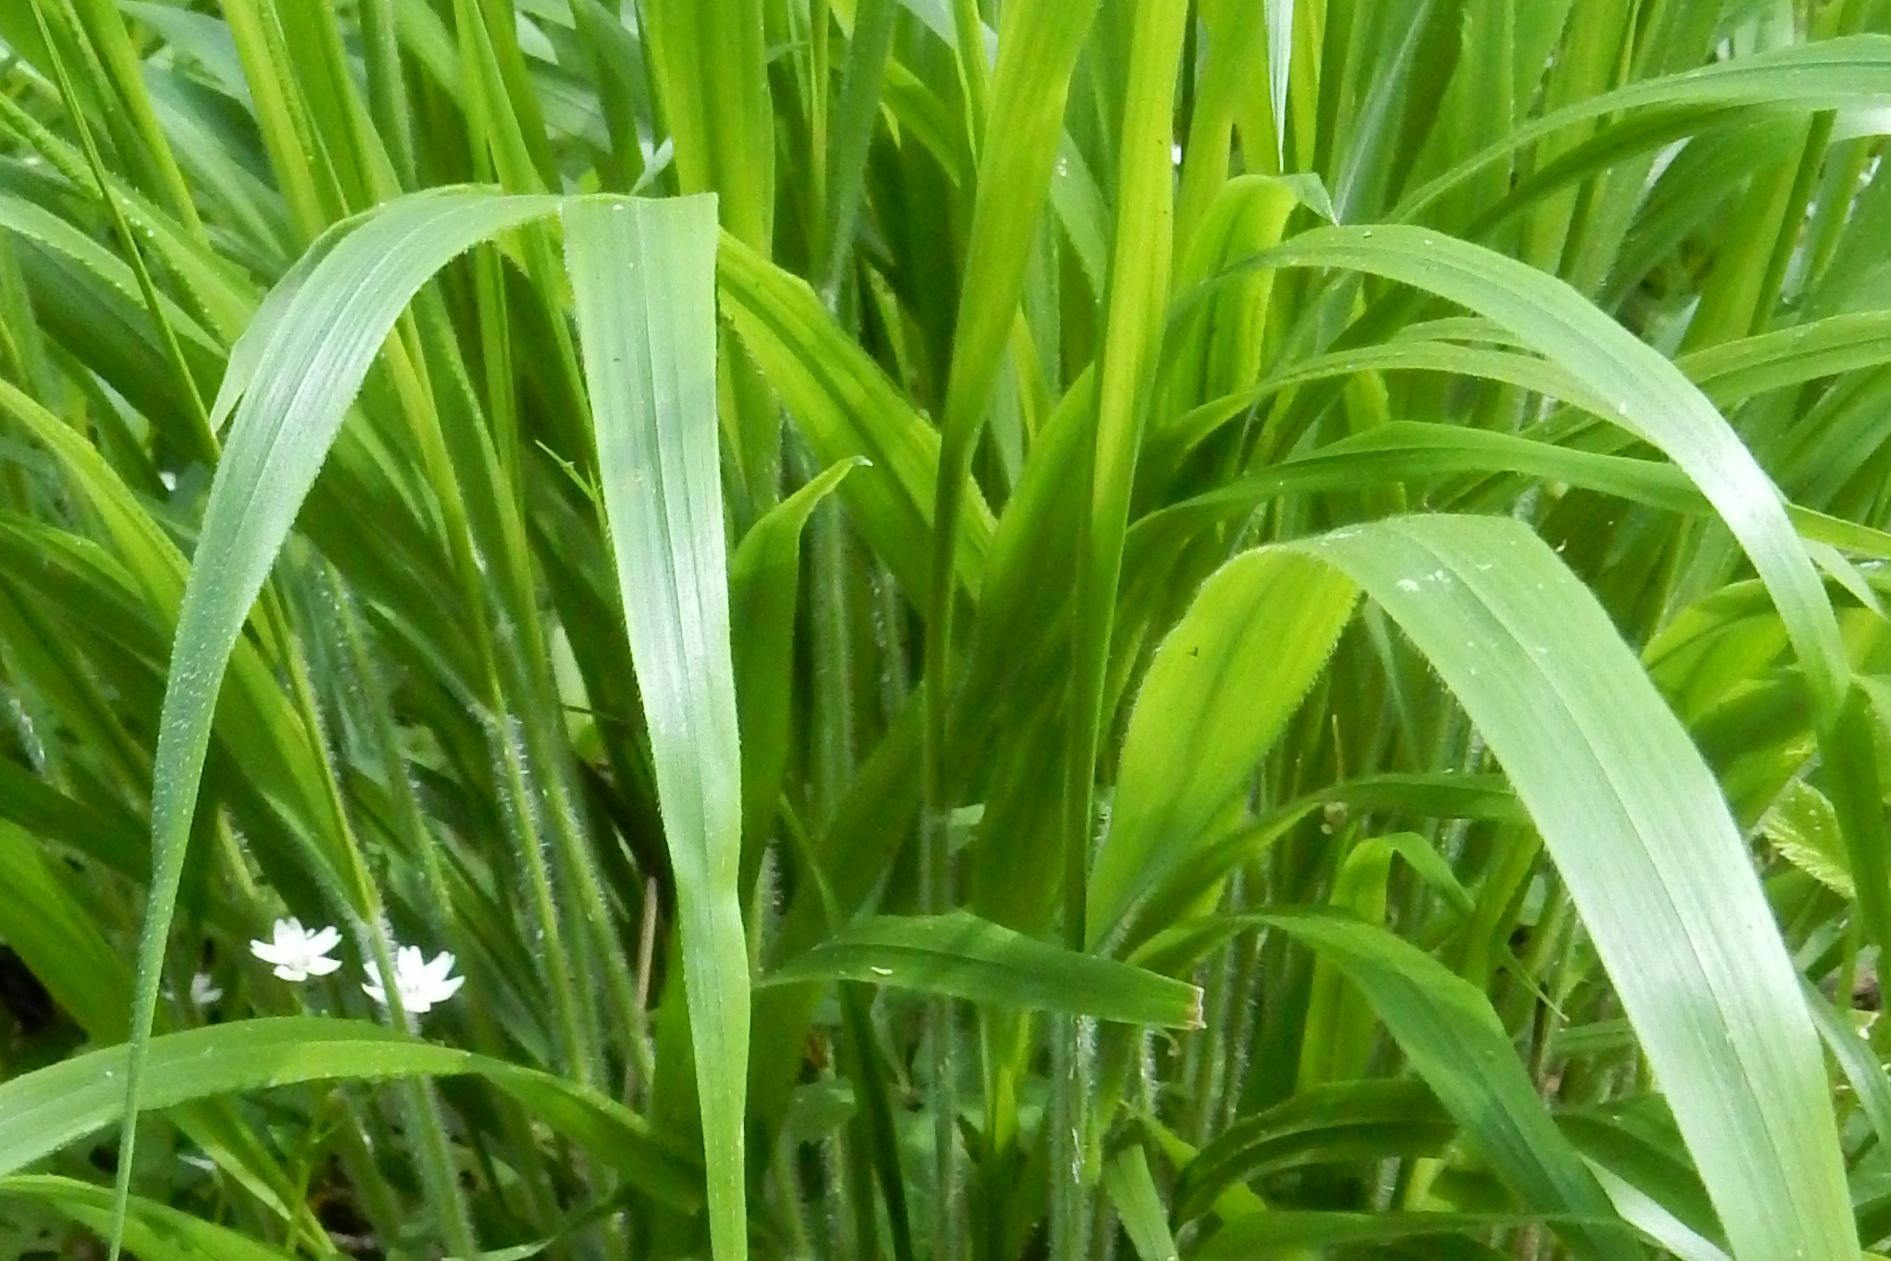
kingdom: Plantae
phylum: Tracheophyta
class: Liliopsida
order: Poales
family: Poaceae
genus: Brachypodium
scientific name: Brachypodium sylvaticum
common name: False-brome
